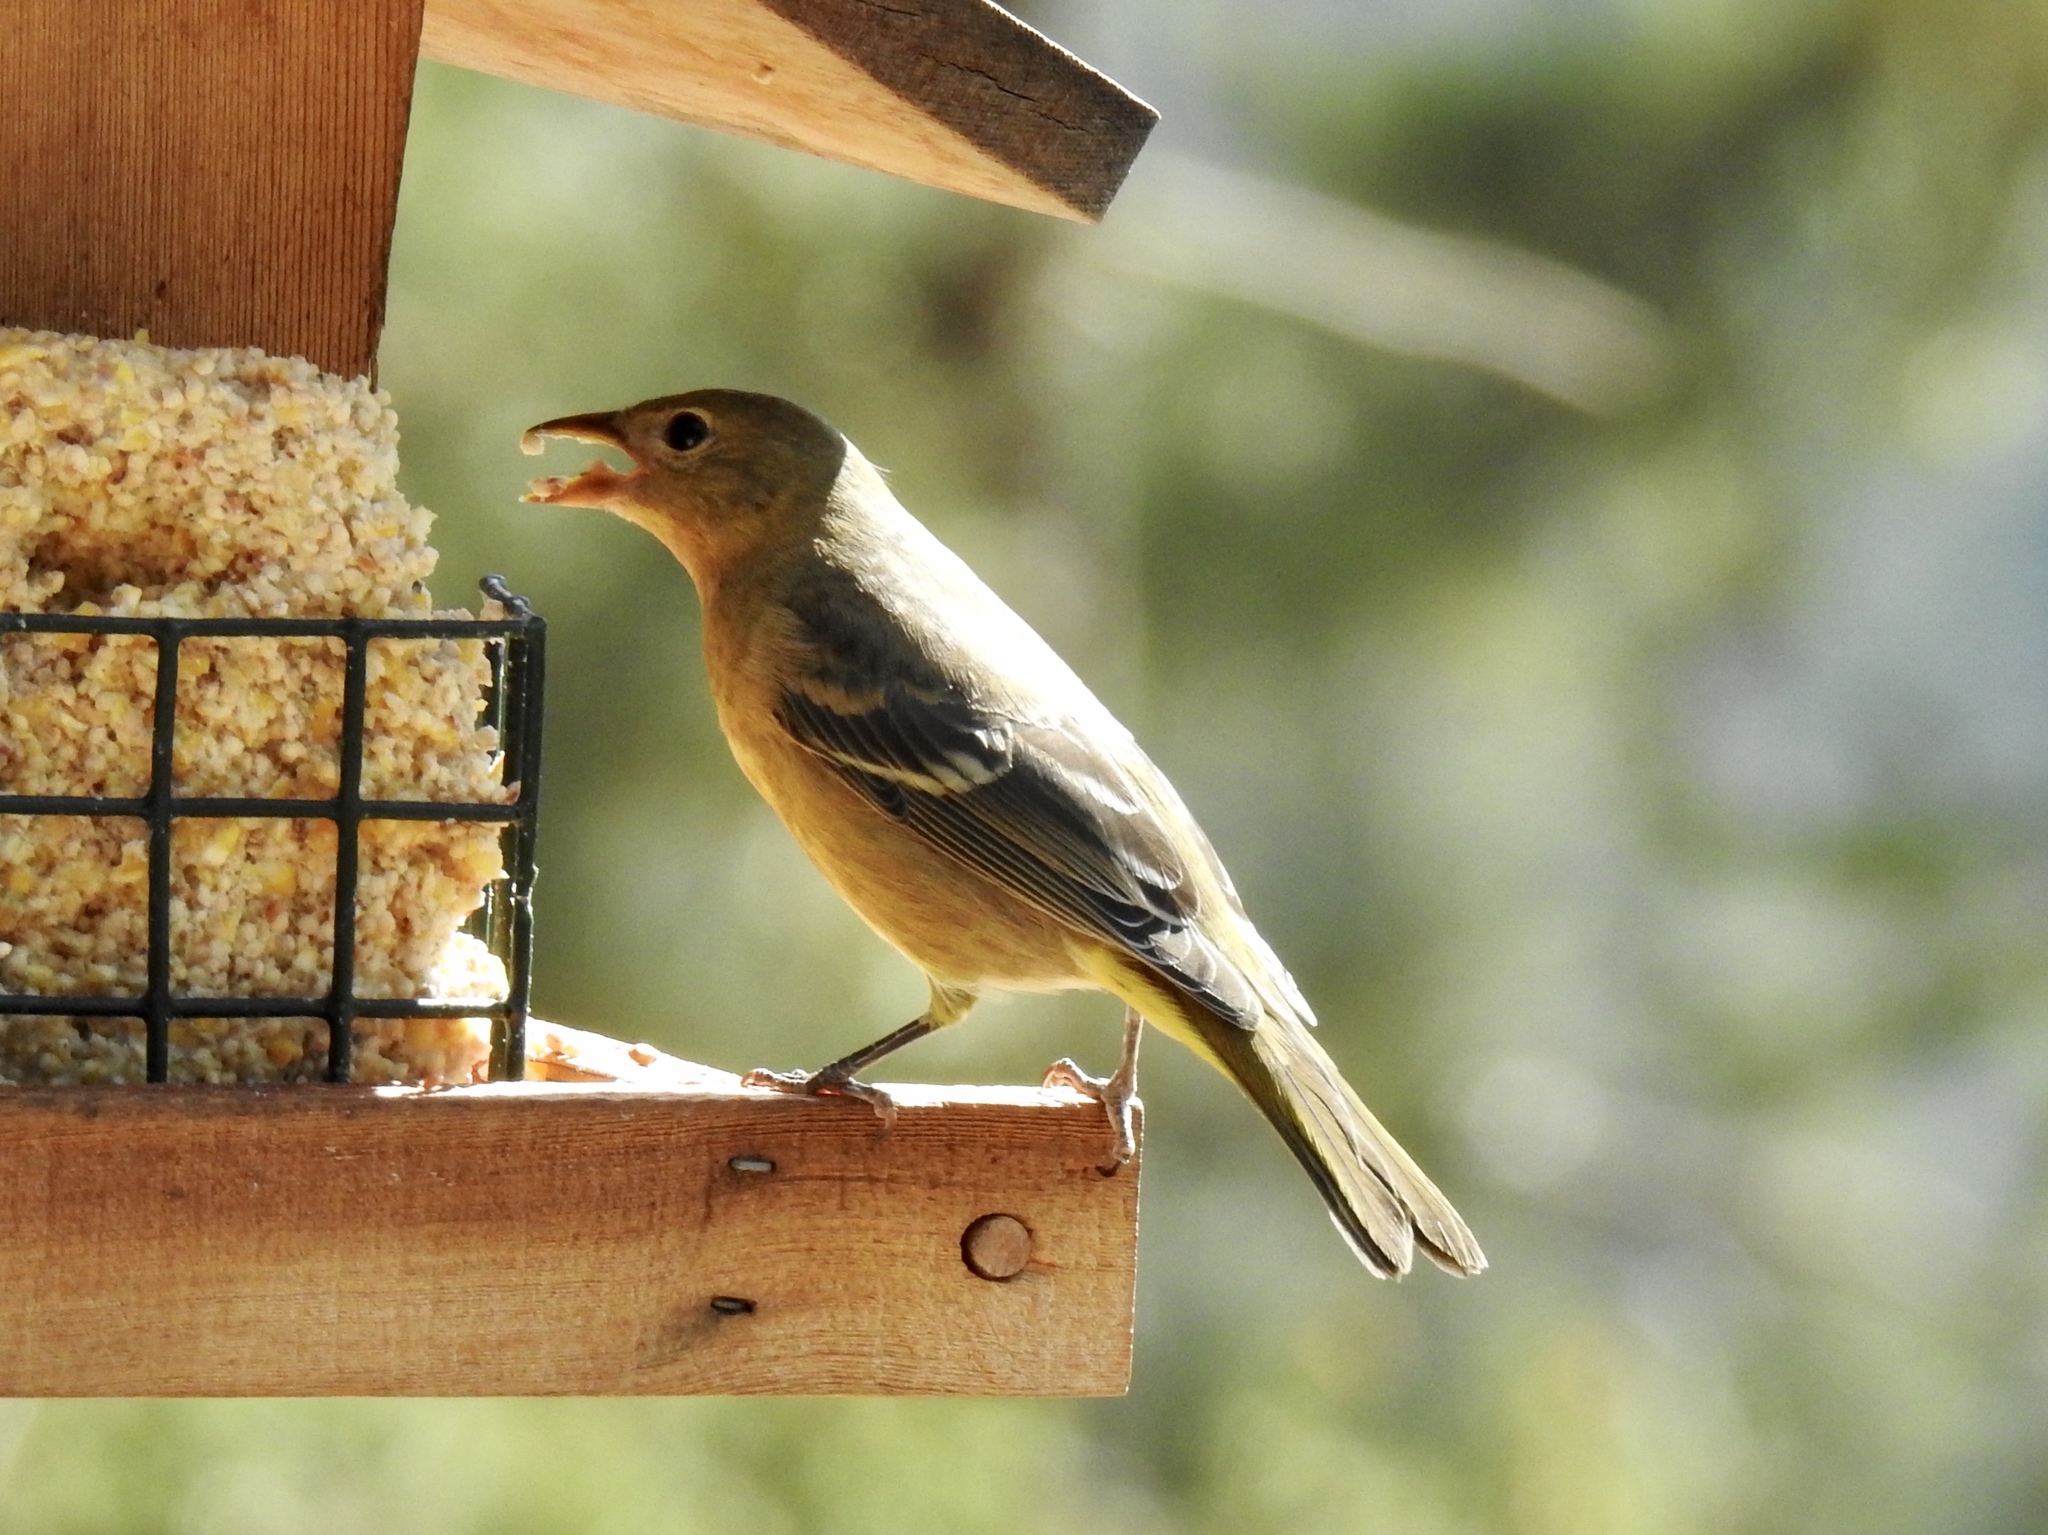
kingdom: Animalia
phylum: Chordata
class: Aves
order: Passeriformes
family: Cardinalidae
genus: Piranga
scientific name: Piranga ludoviciana
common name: Western tanager
